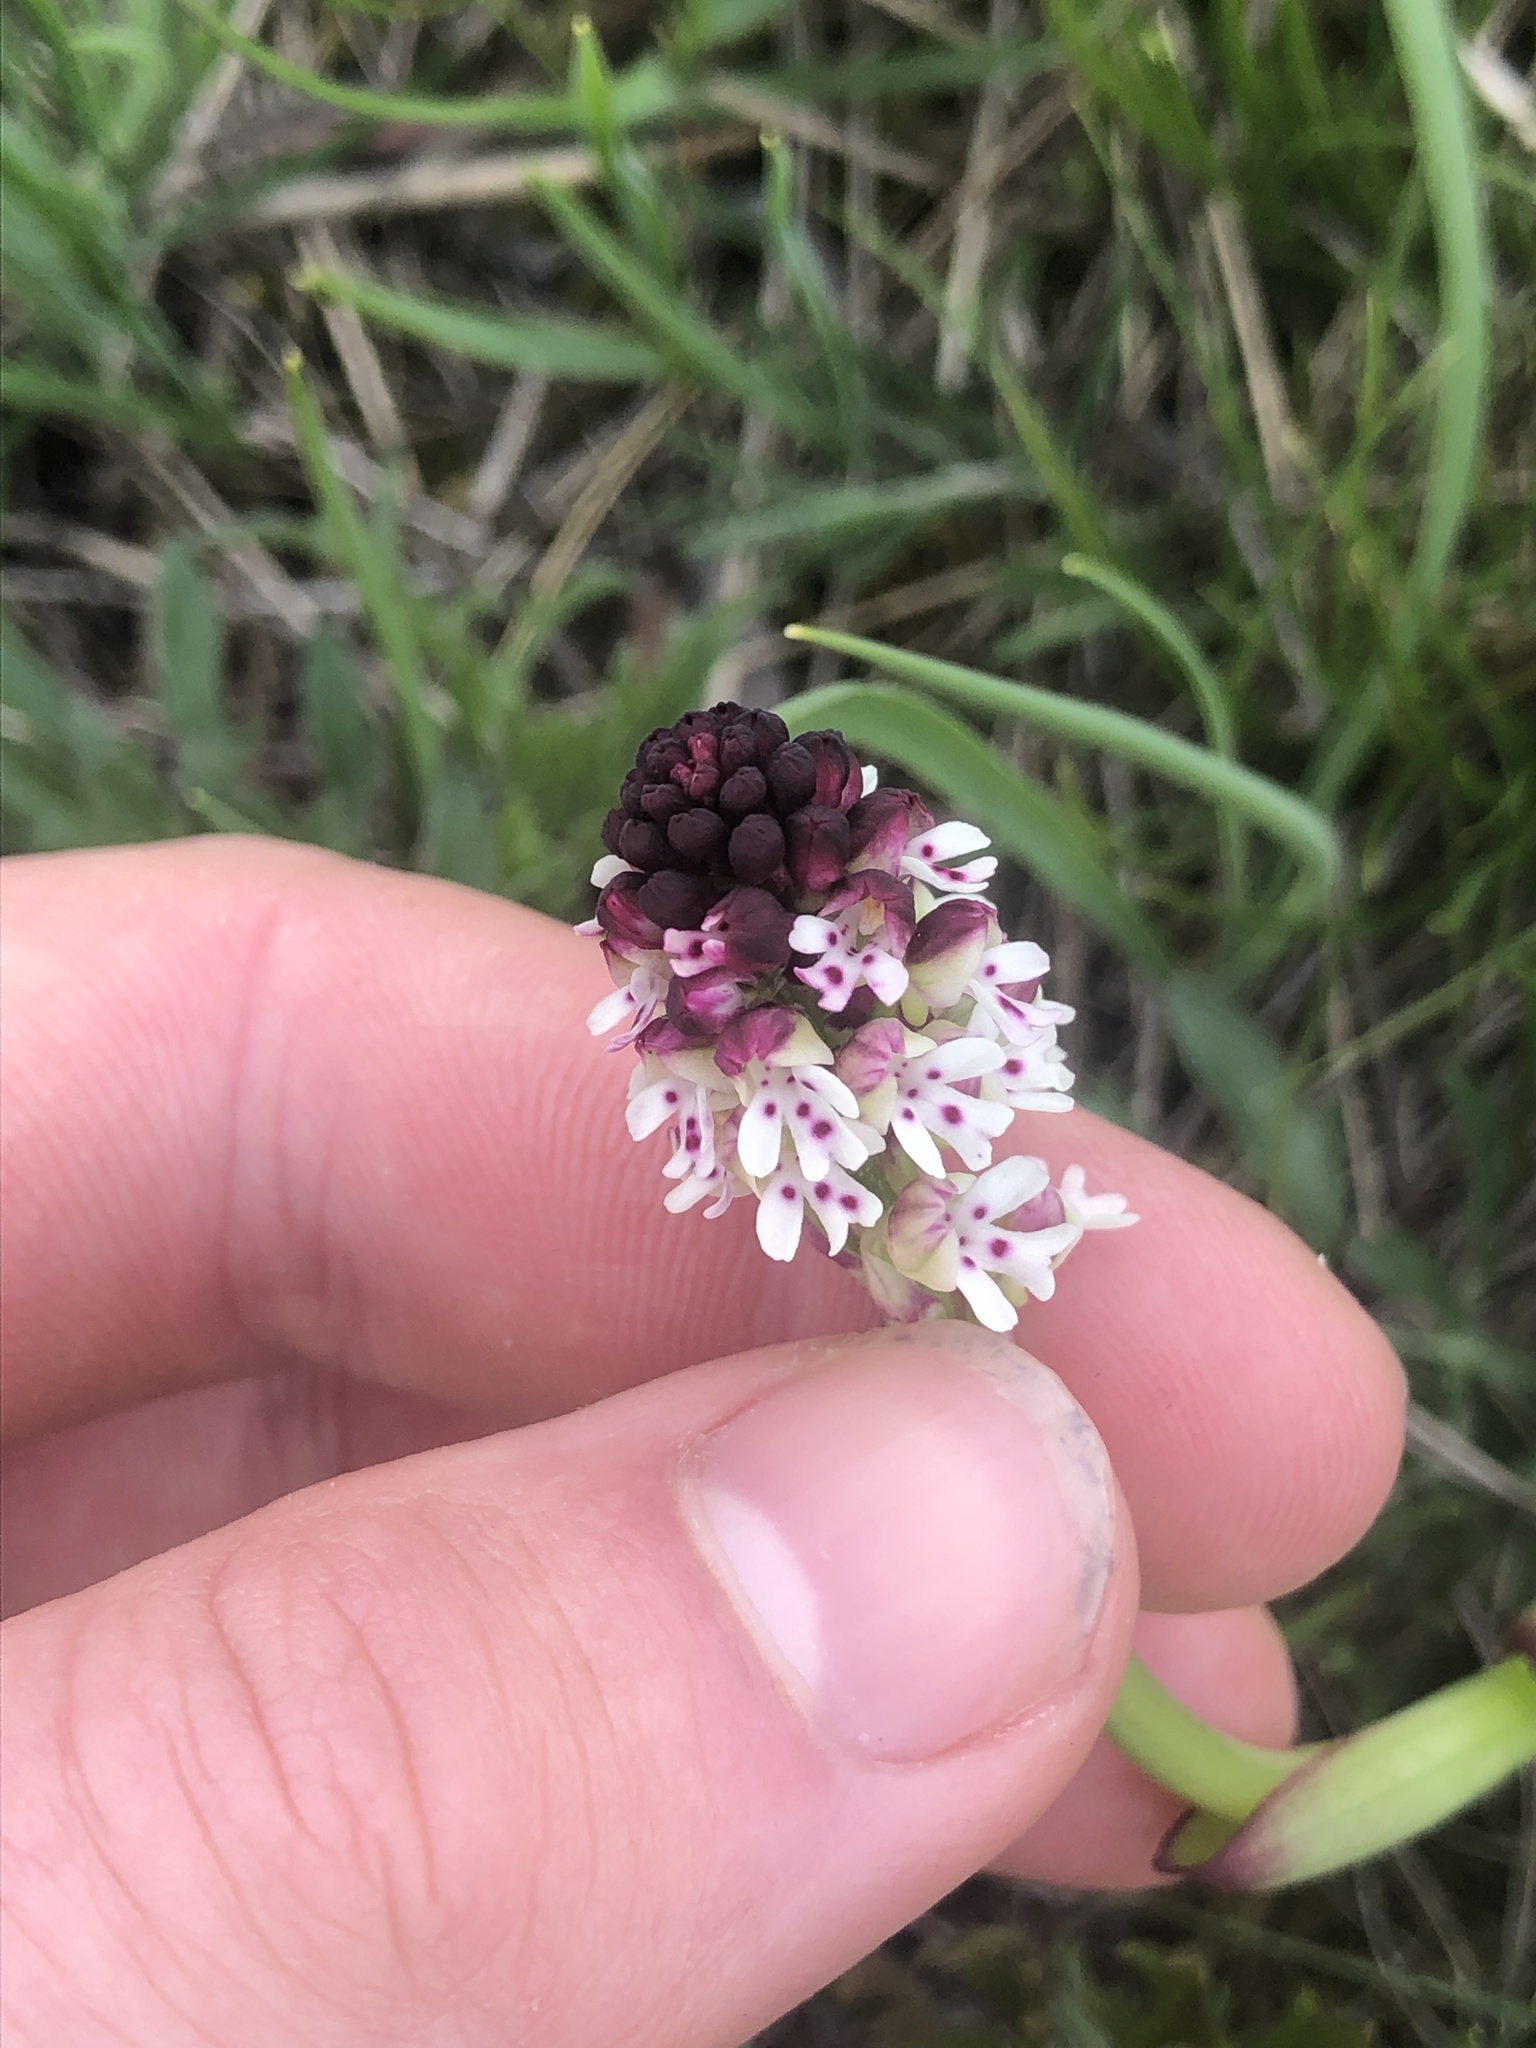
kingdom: Plantae
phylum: Tracheophyta
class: Liliopsida
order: Asparagales
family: Orchidaceae
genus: Neotinea
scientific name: Neotinea ustulata
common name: Burnt orchid
